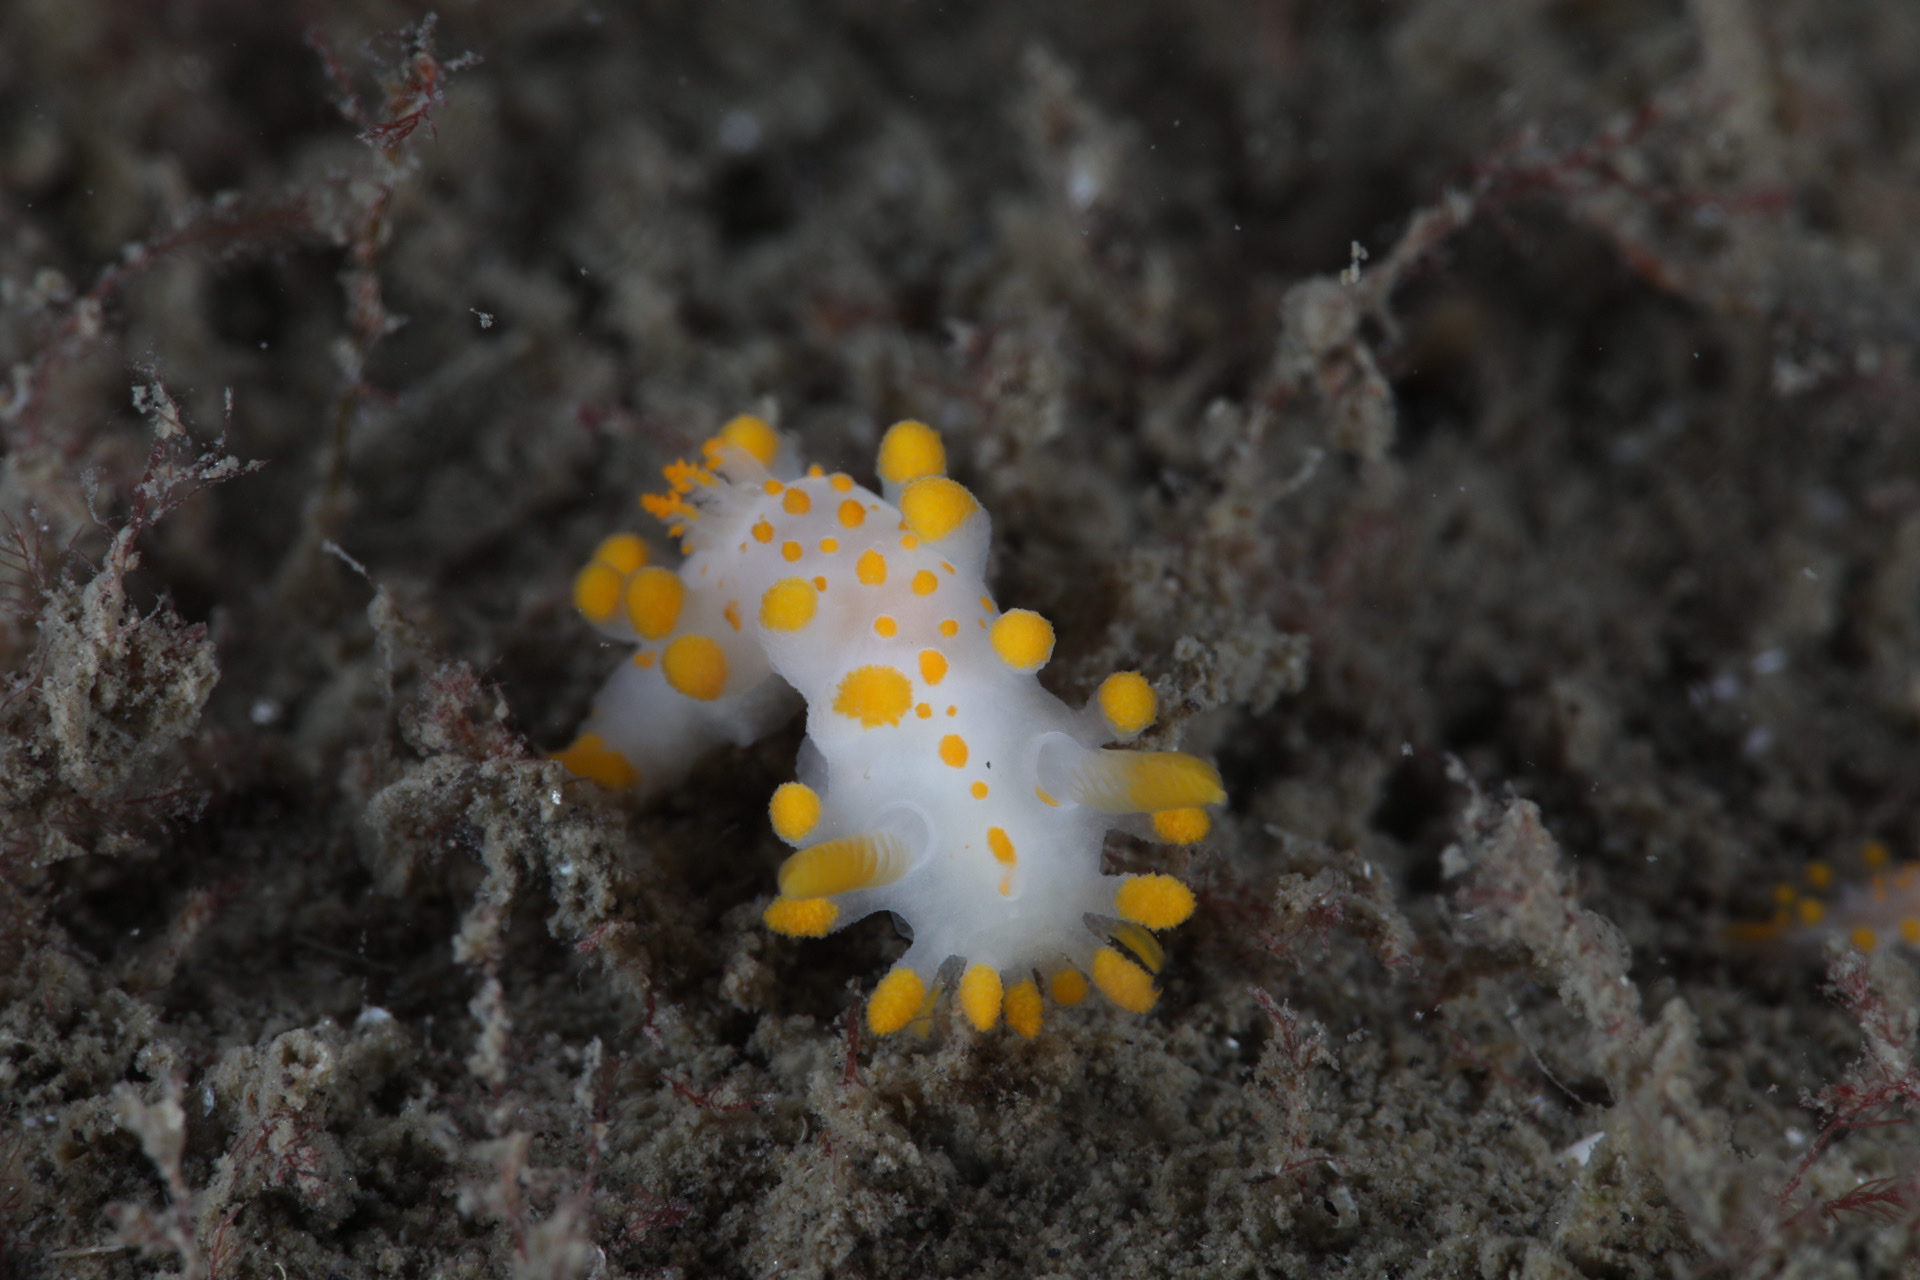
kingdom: Animalia
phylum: Mollusca
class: Gastropoda
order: Nudibranchia
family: Polyceridae
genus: Limacia
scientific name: Limacia clavigera
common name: Orange-clubbed sea slug
